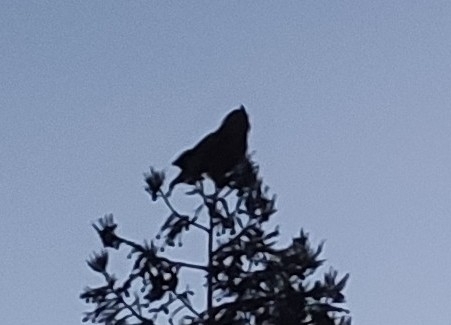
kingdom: Animalia
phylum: Chordata
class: Aves
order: Strigiformes
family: Strigidae
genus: Bubo
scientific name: Bubo virginianus
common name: Great horned owl
